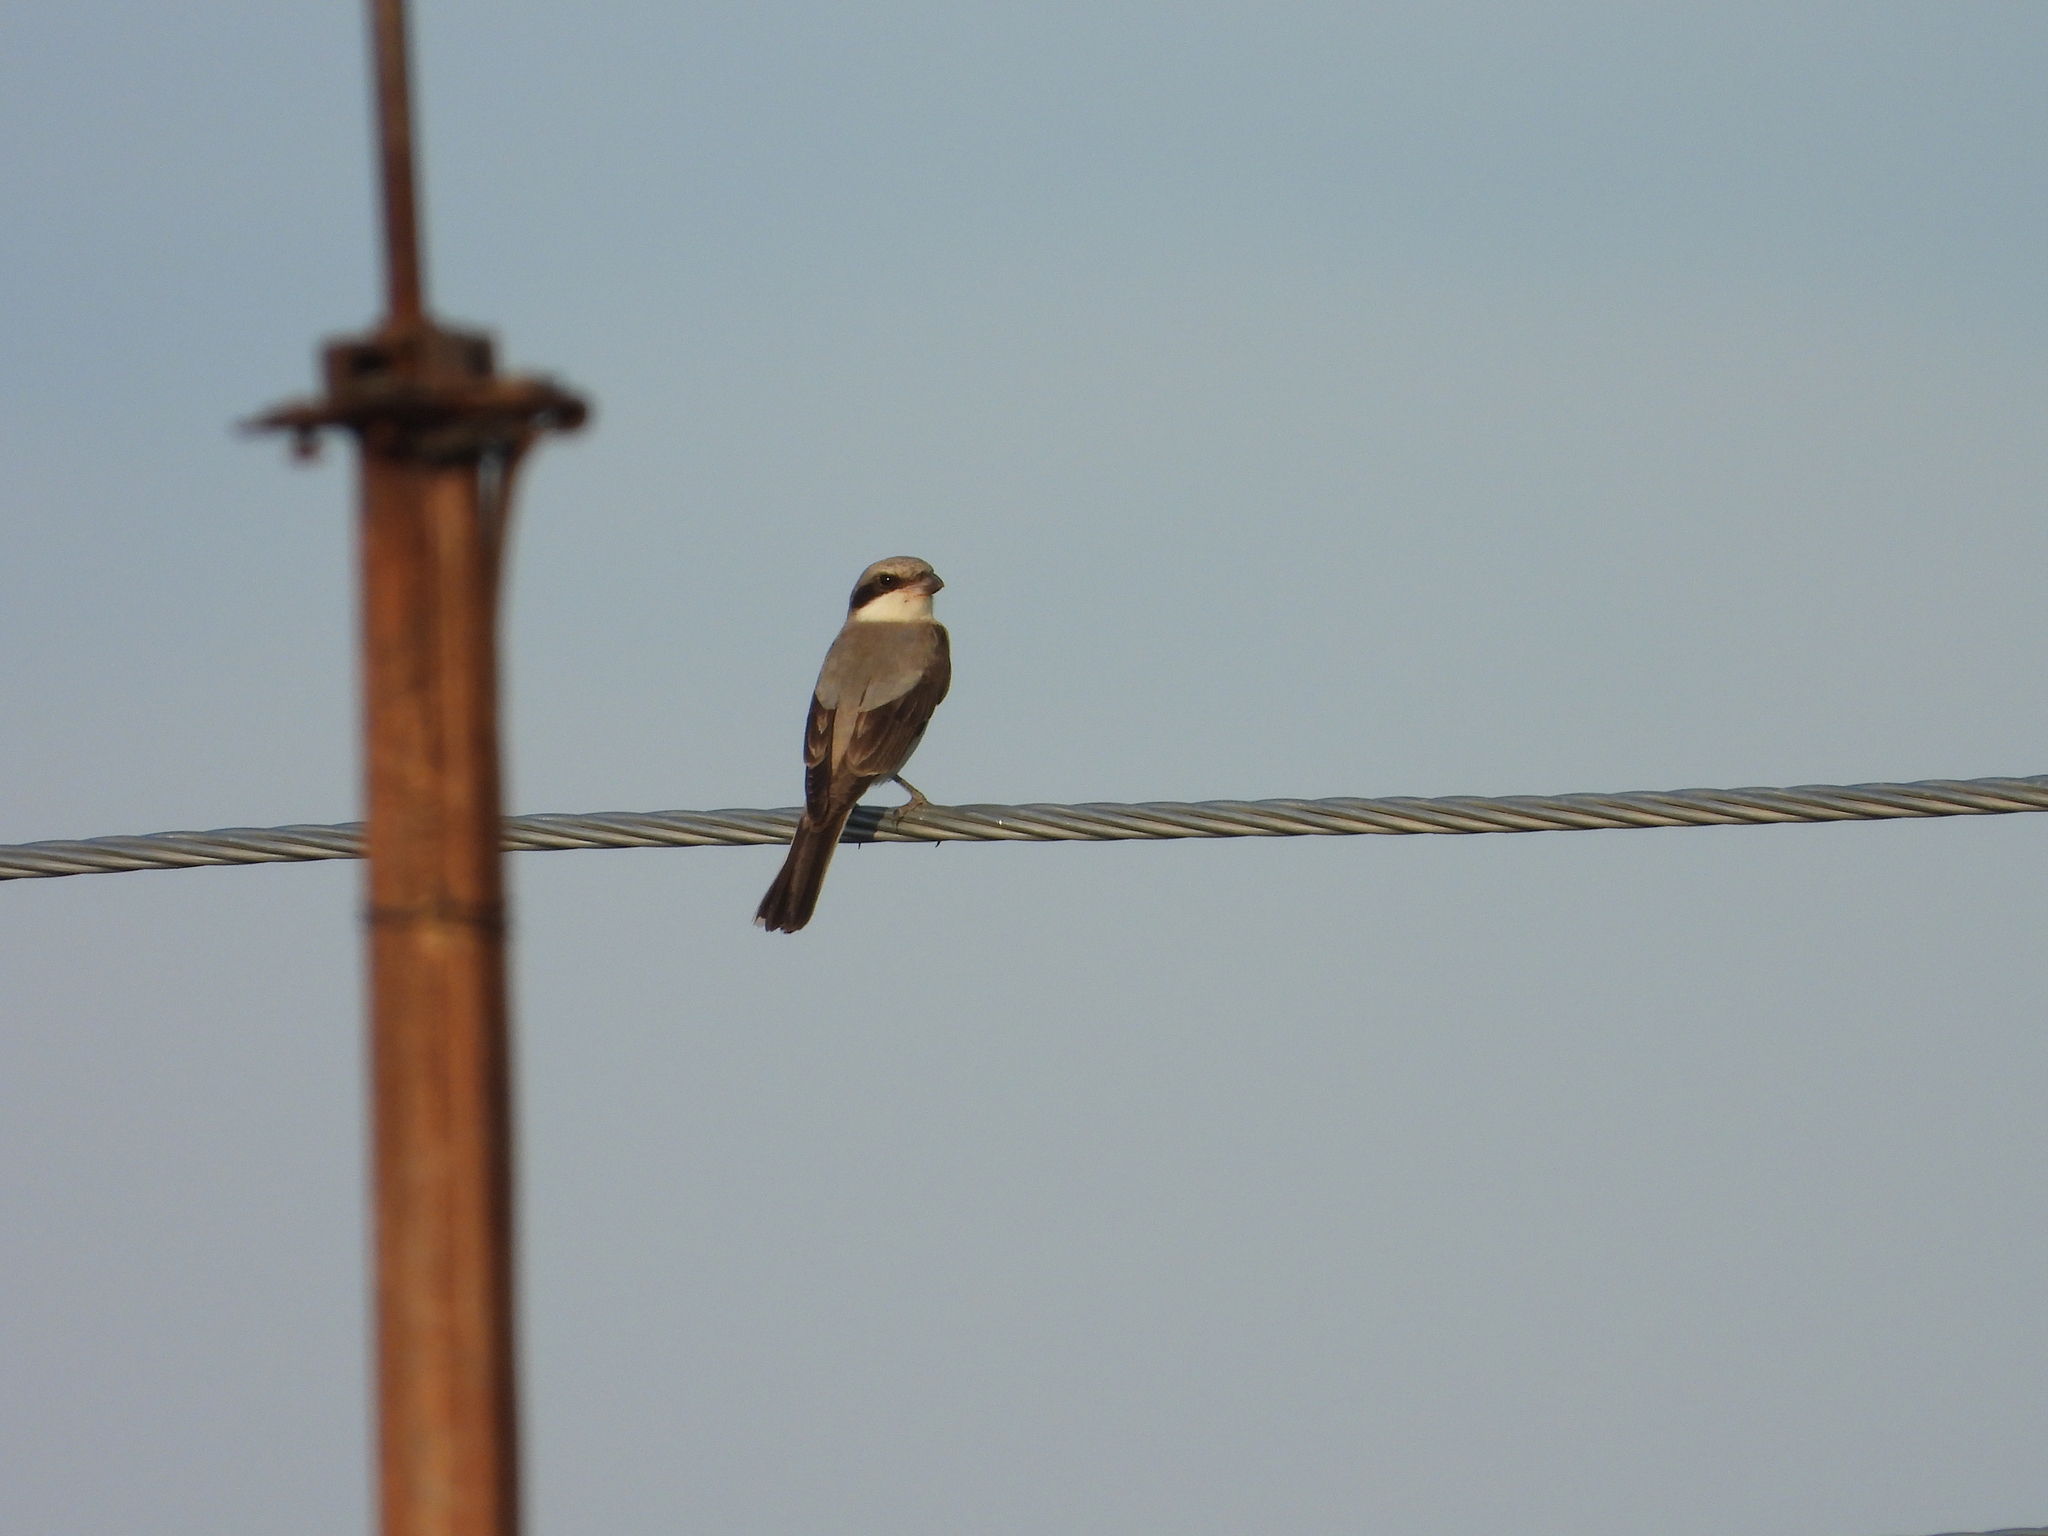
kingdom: Animalia
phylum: Chordata
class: Aves
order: Passeriformes
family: Laniidae
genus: Lanius
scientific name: Lanius minor
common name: Lesser grey shrike
